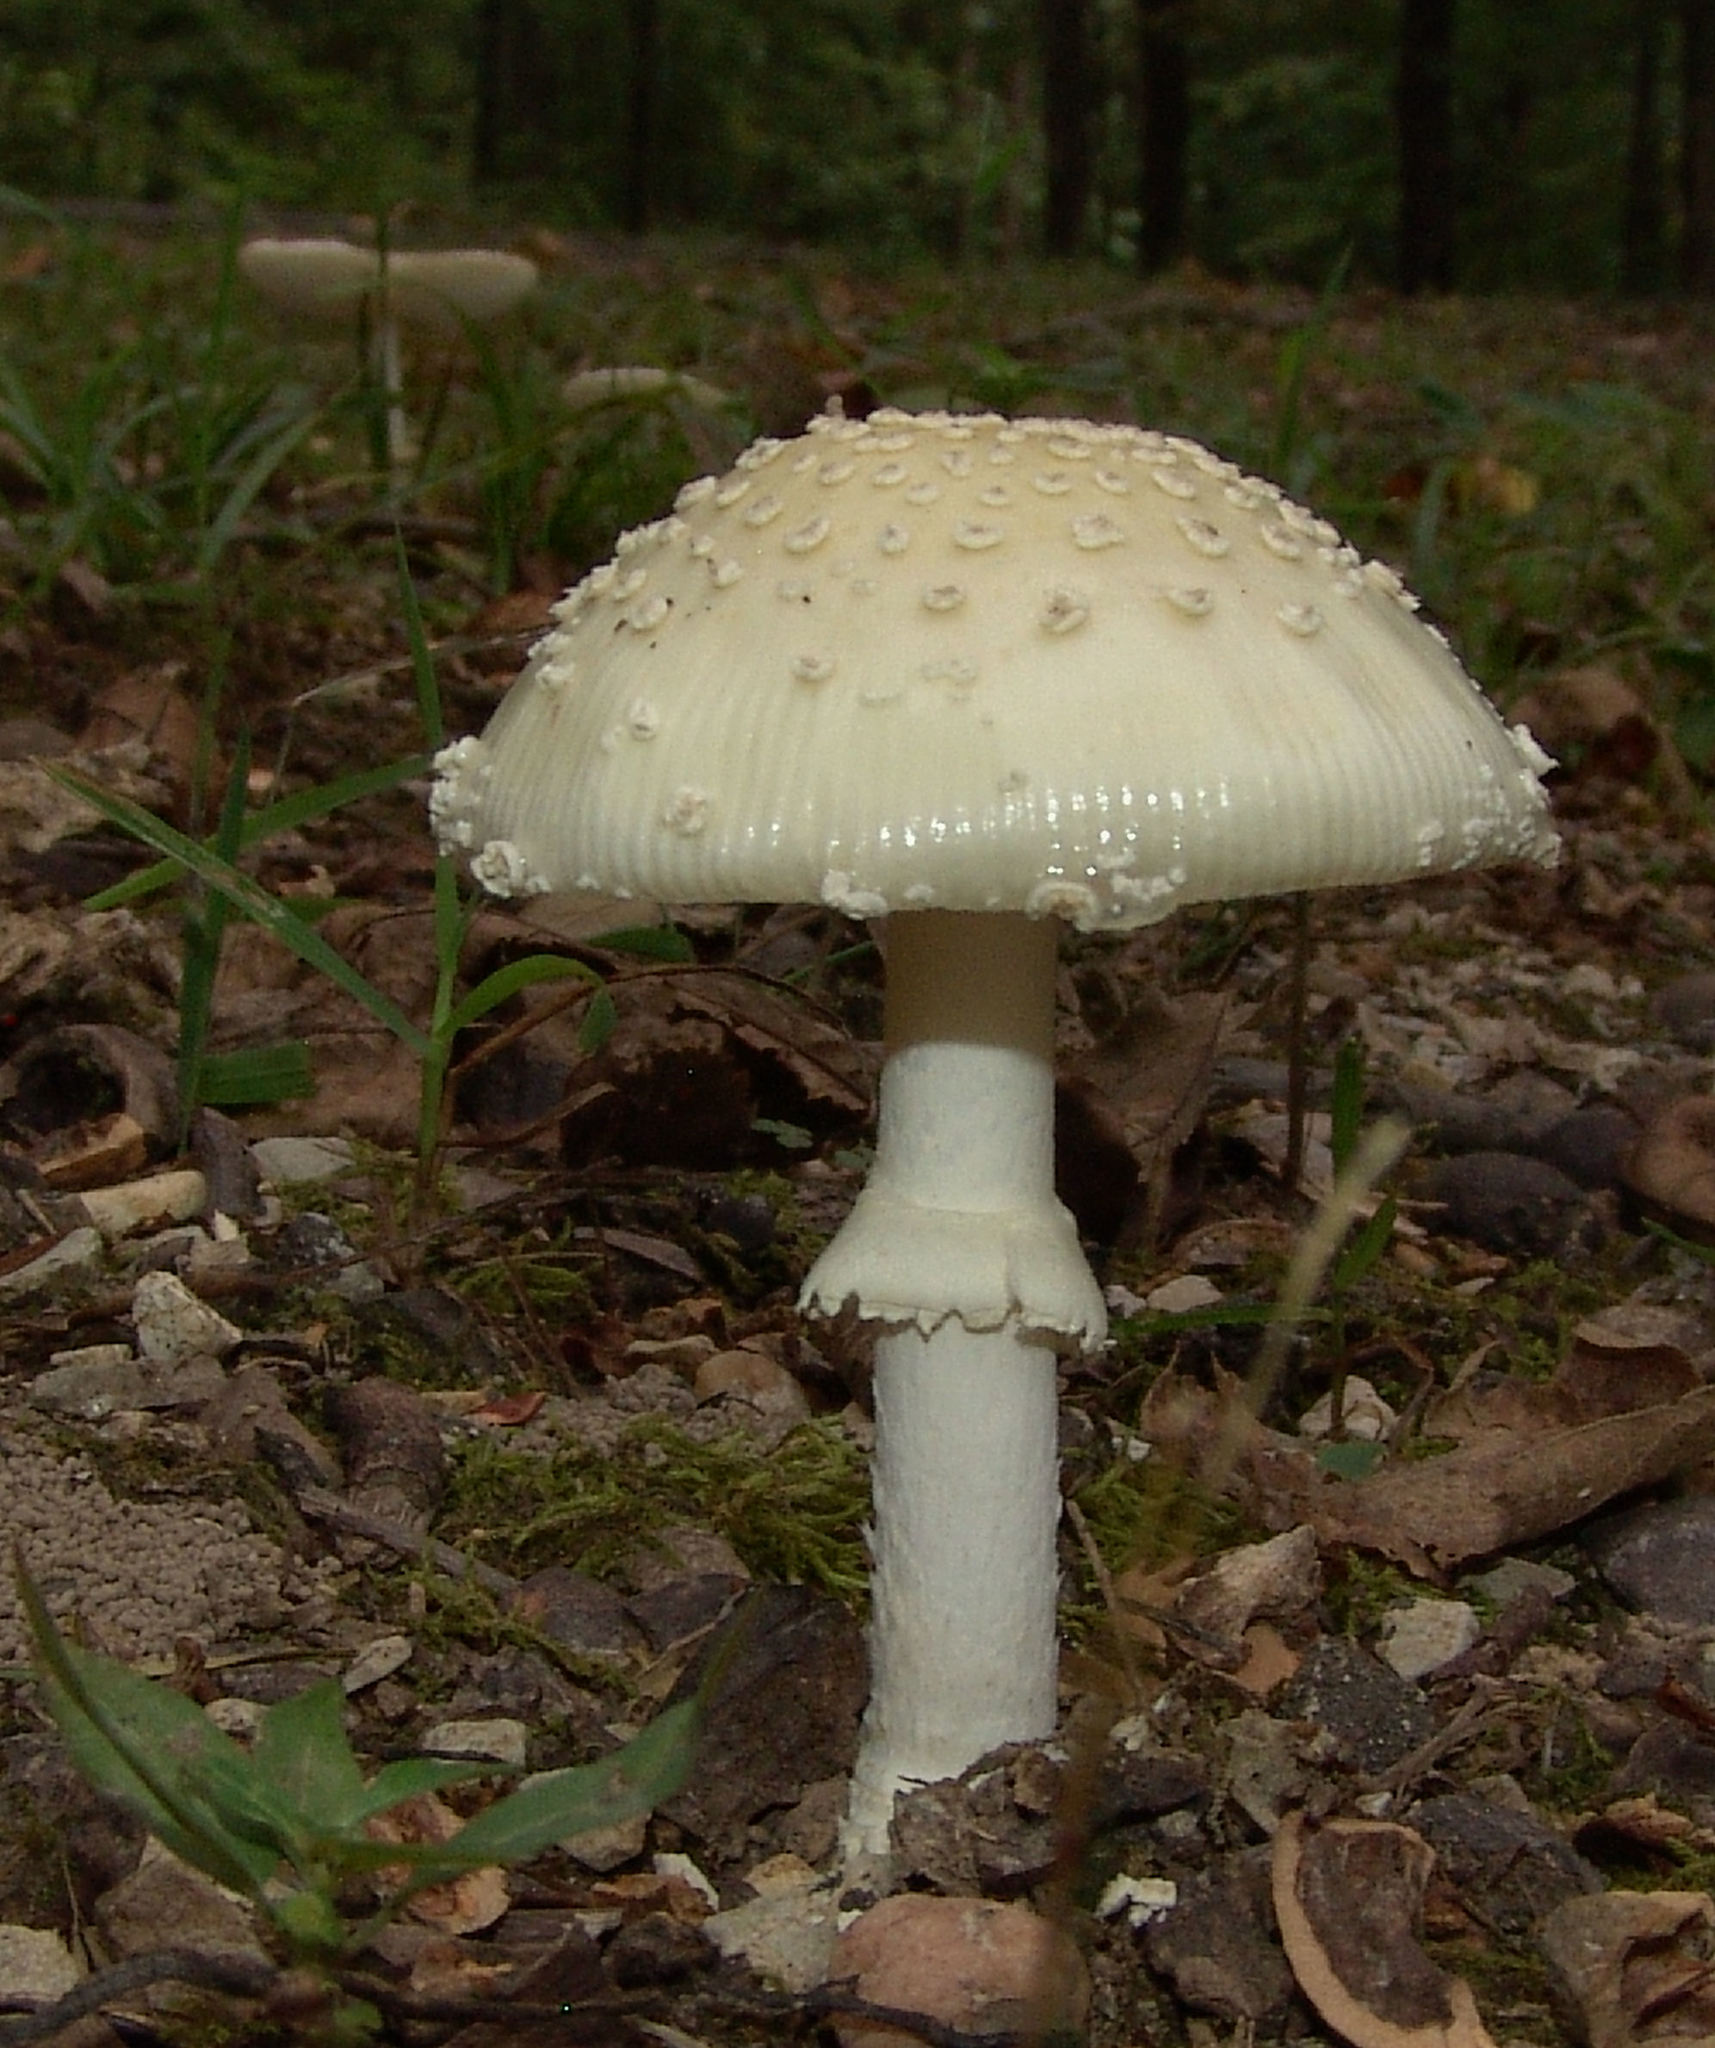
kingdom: Fungi
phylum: Basidiomycota
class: Agaricomycetes
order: Agaricales
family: Amanitaceae
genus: Amanita
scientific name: Amanita velatipes
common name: Great funnel-veil amanita
